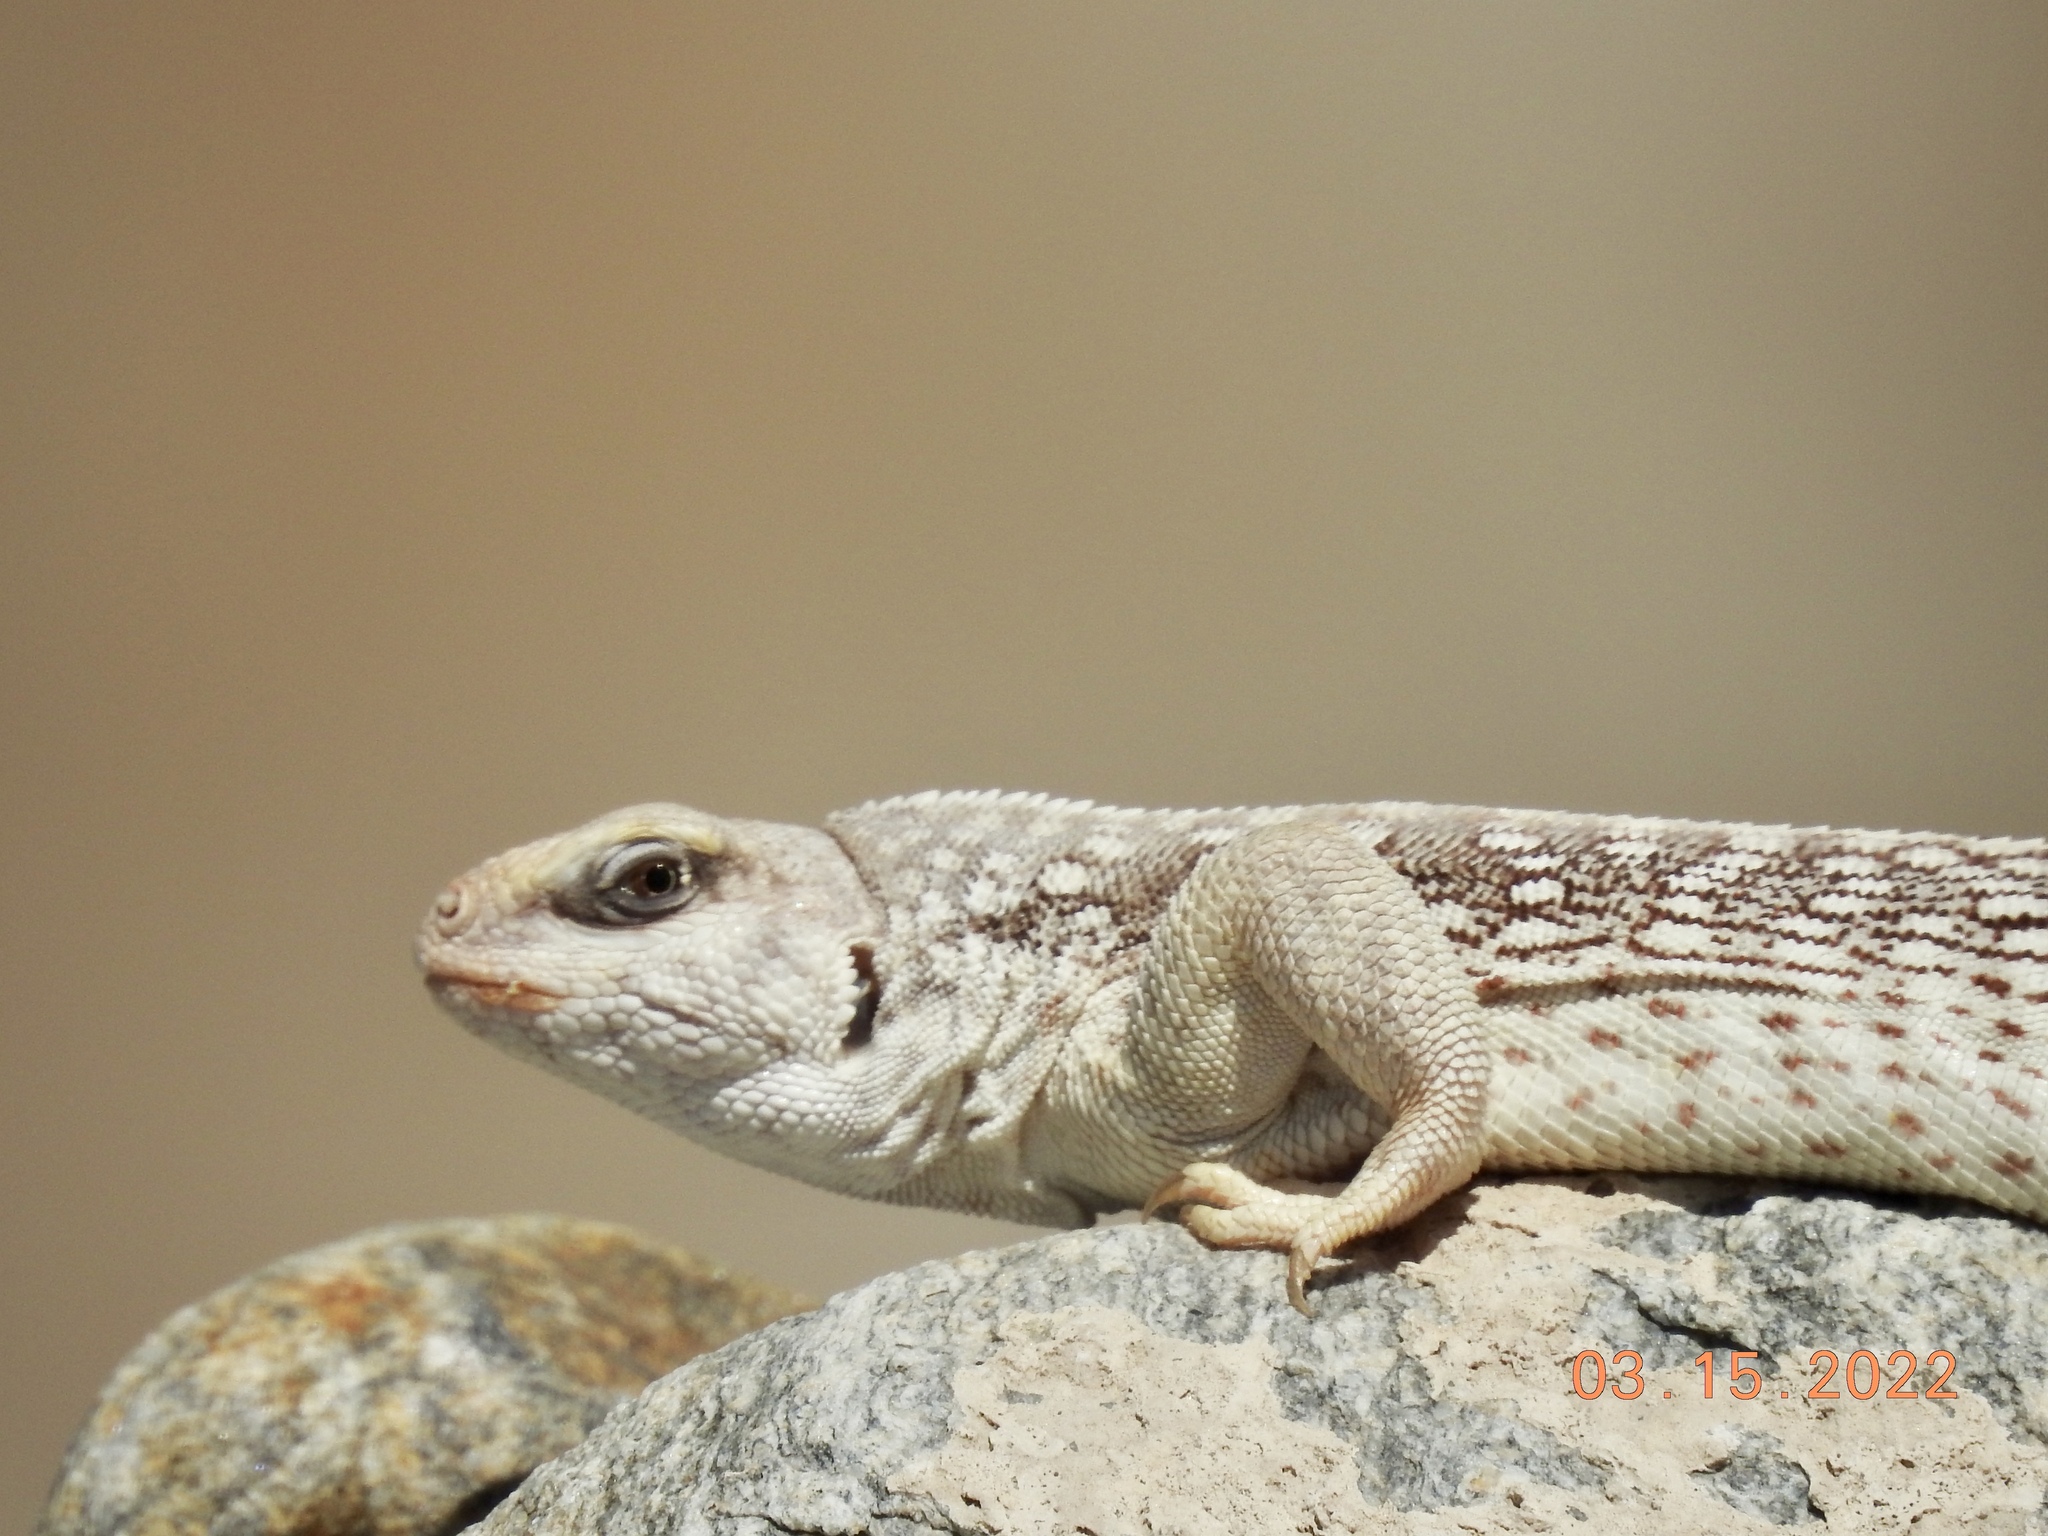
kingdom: Animalia
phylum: Chordata
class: Squamata
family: Iguanidae
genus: Dipsosaurus
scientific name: Dipsosaurus dorsalis
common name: Desert iguana
